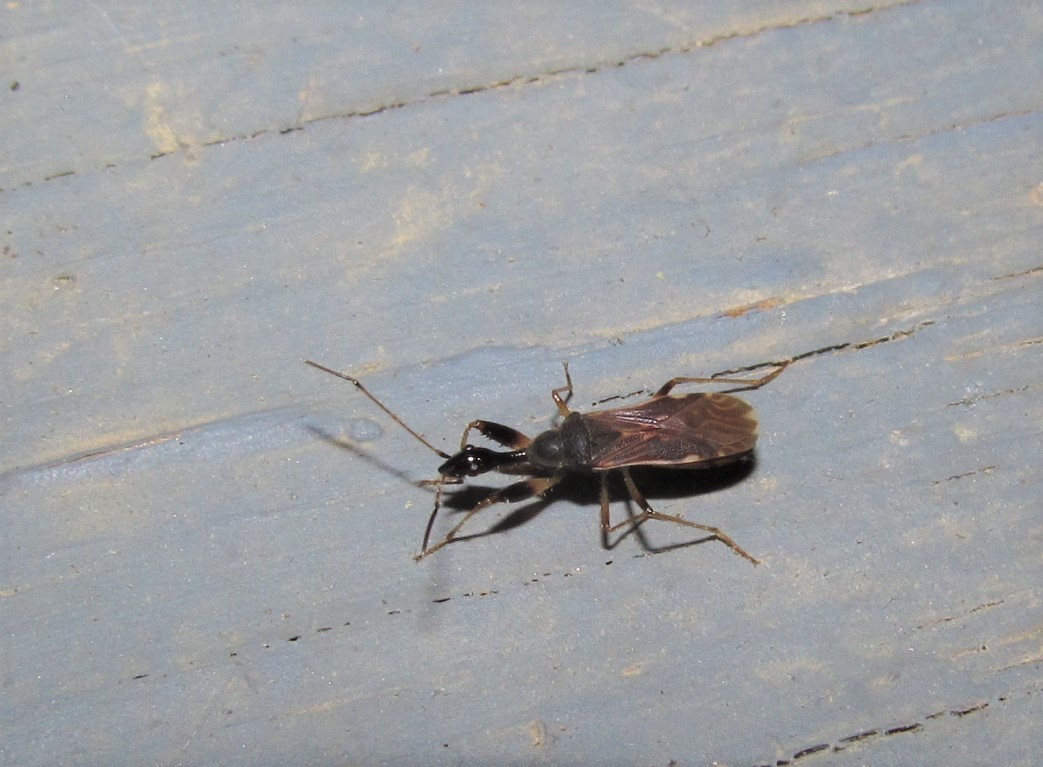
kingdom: Animalia
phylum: Arthropoda
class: Insecta
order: Hemiptera
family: Rhyparochromidae
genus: Myodocha
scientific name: Myodocha serripes
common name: Long-necked seed bug
